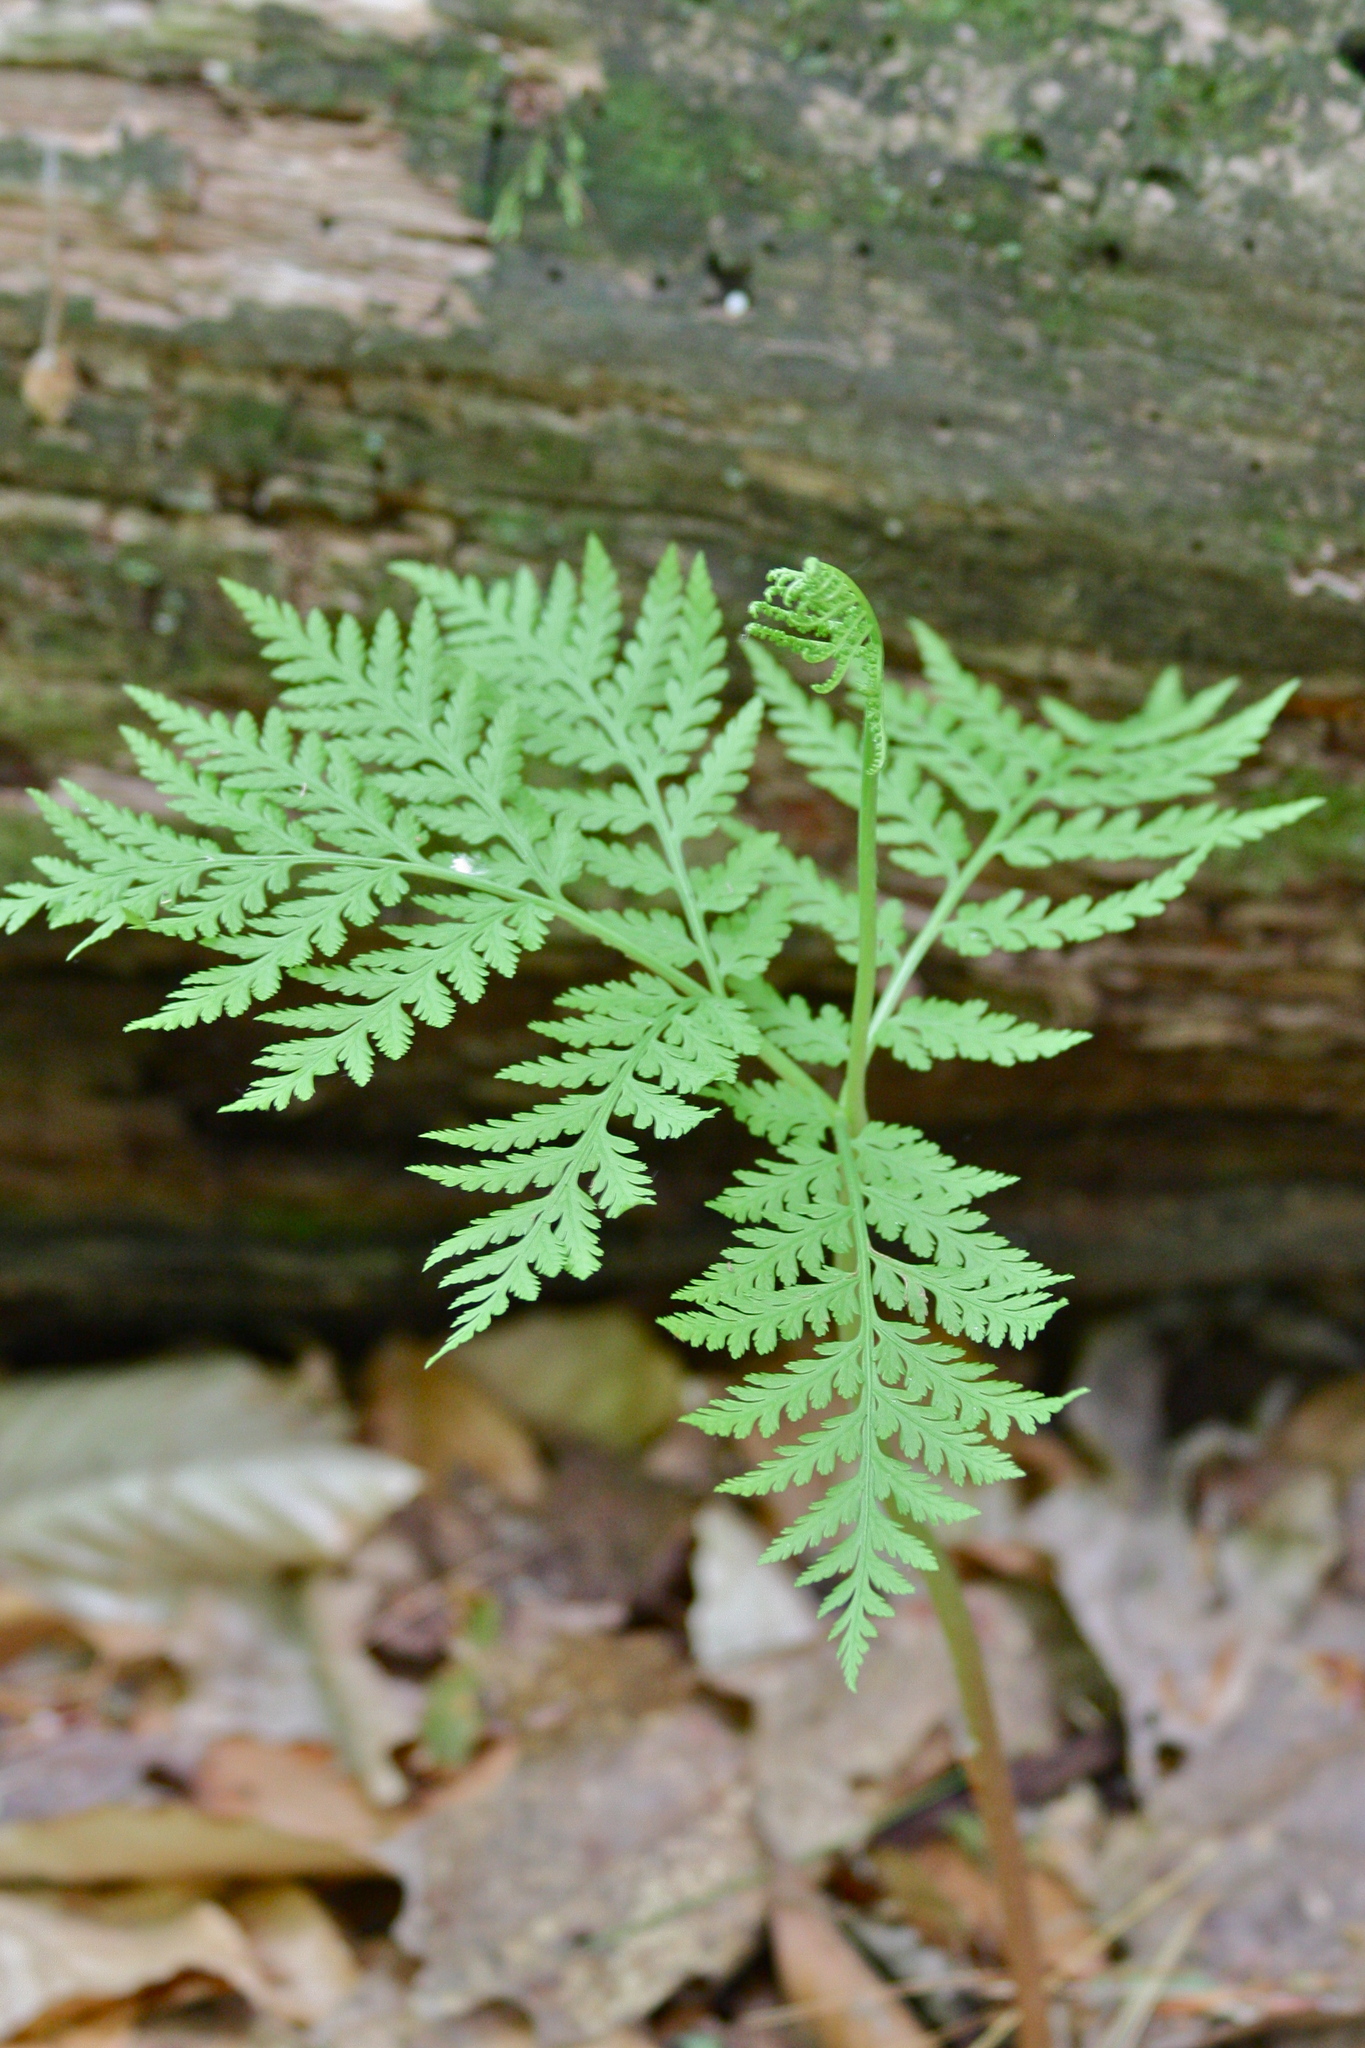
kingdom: Plantae
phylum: Tracheophyta
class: Polypodiopsida
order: Ophioglossales
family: Ophioglossaceae
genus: Botrypus
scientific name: Botrypus virginianus
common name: Common grapefern
